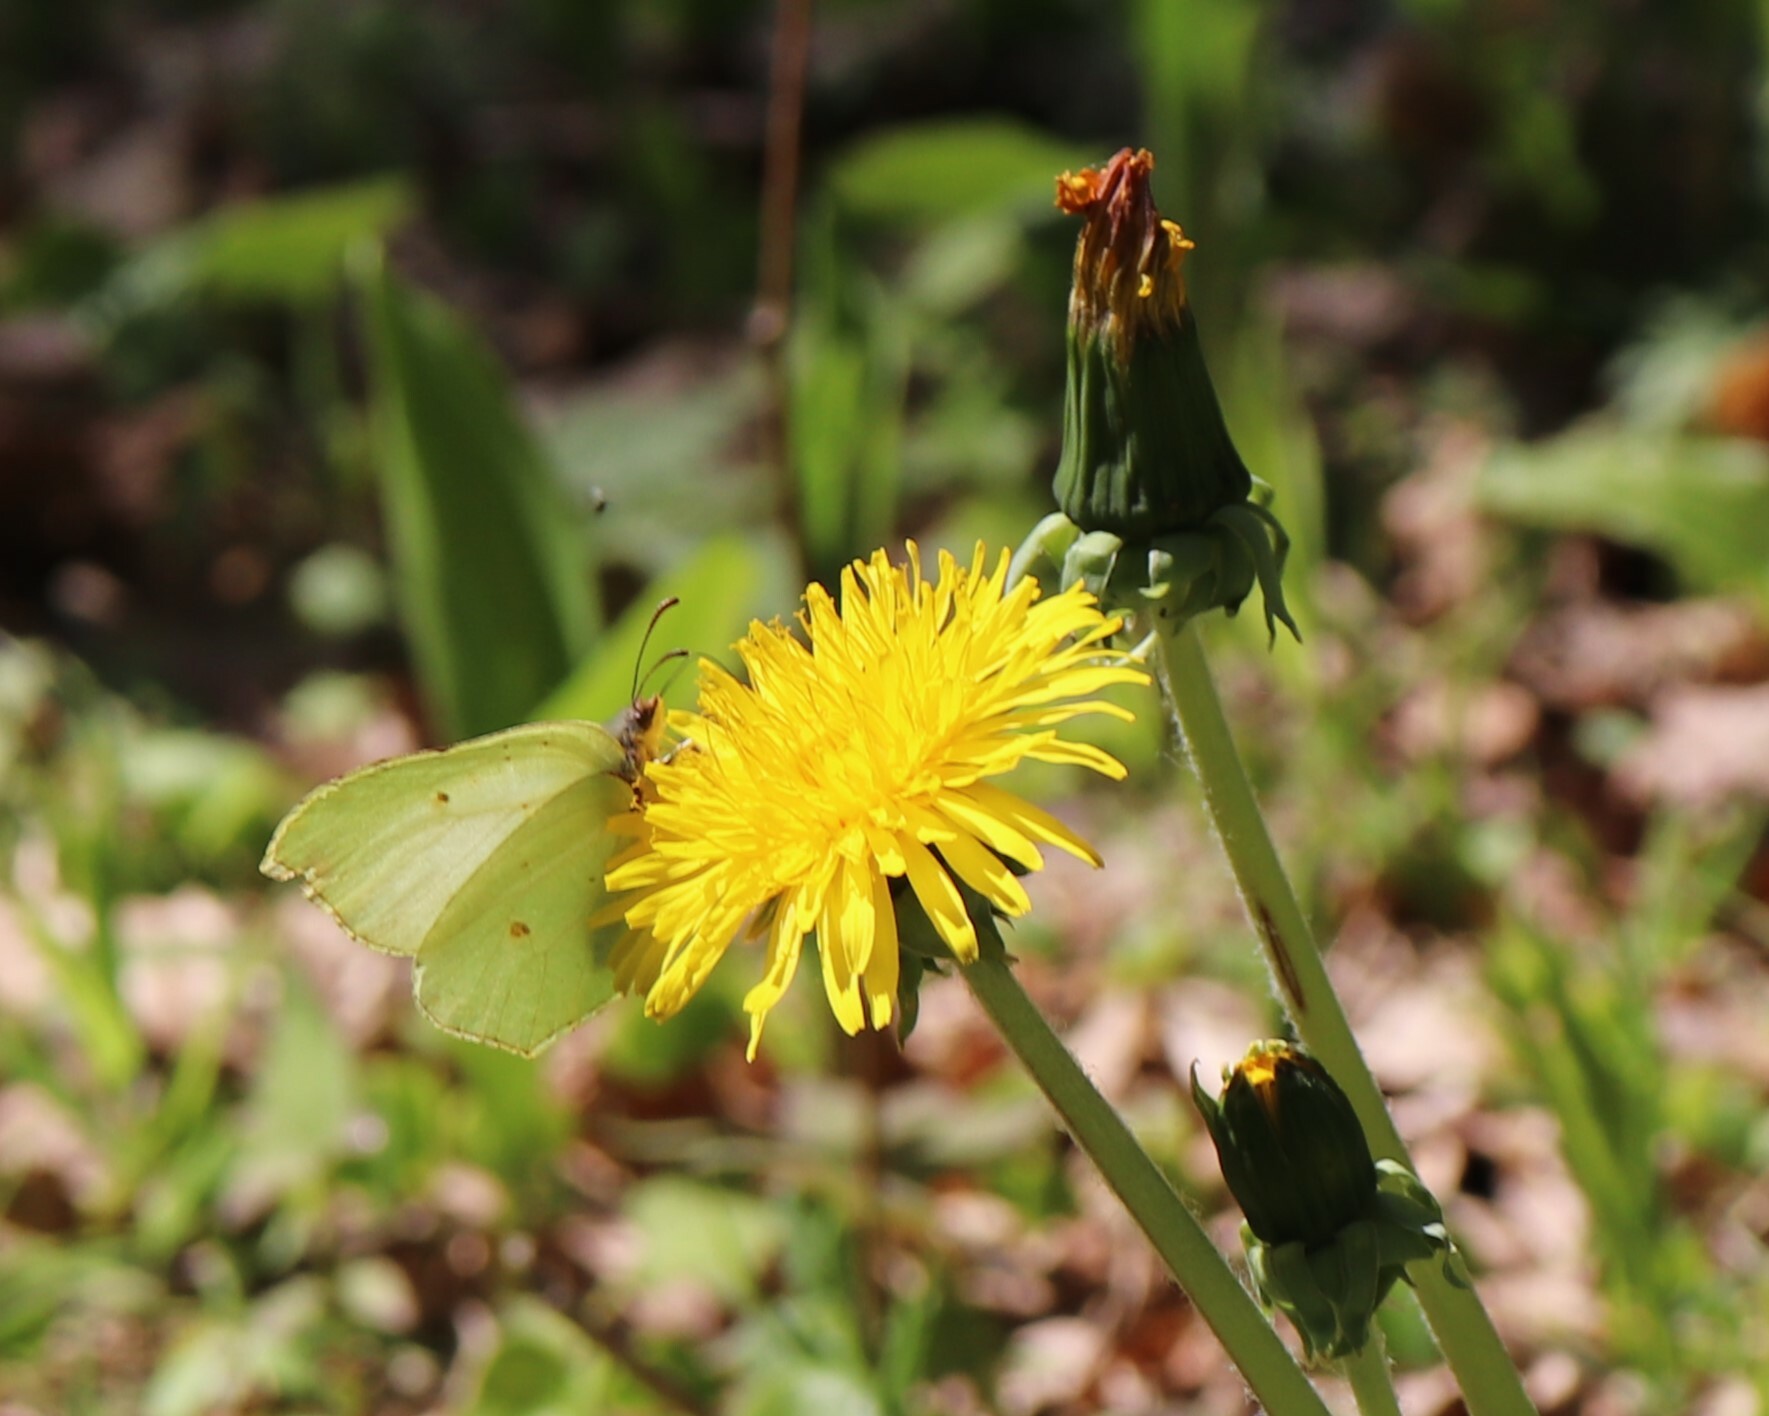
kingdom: Animalia
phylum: Arthropoda
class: Insecta
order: Lepidoptera
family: Pieridae
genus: Gonepteryx
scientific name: Gonepteryx rhamni
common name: Brimstone
